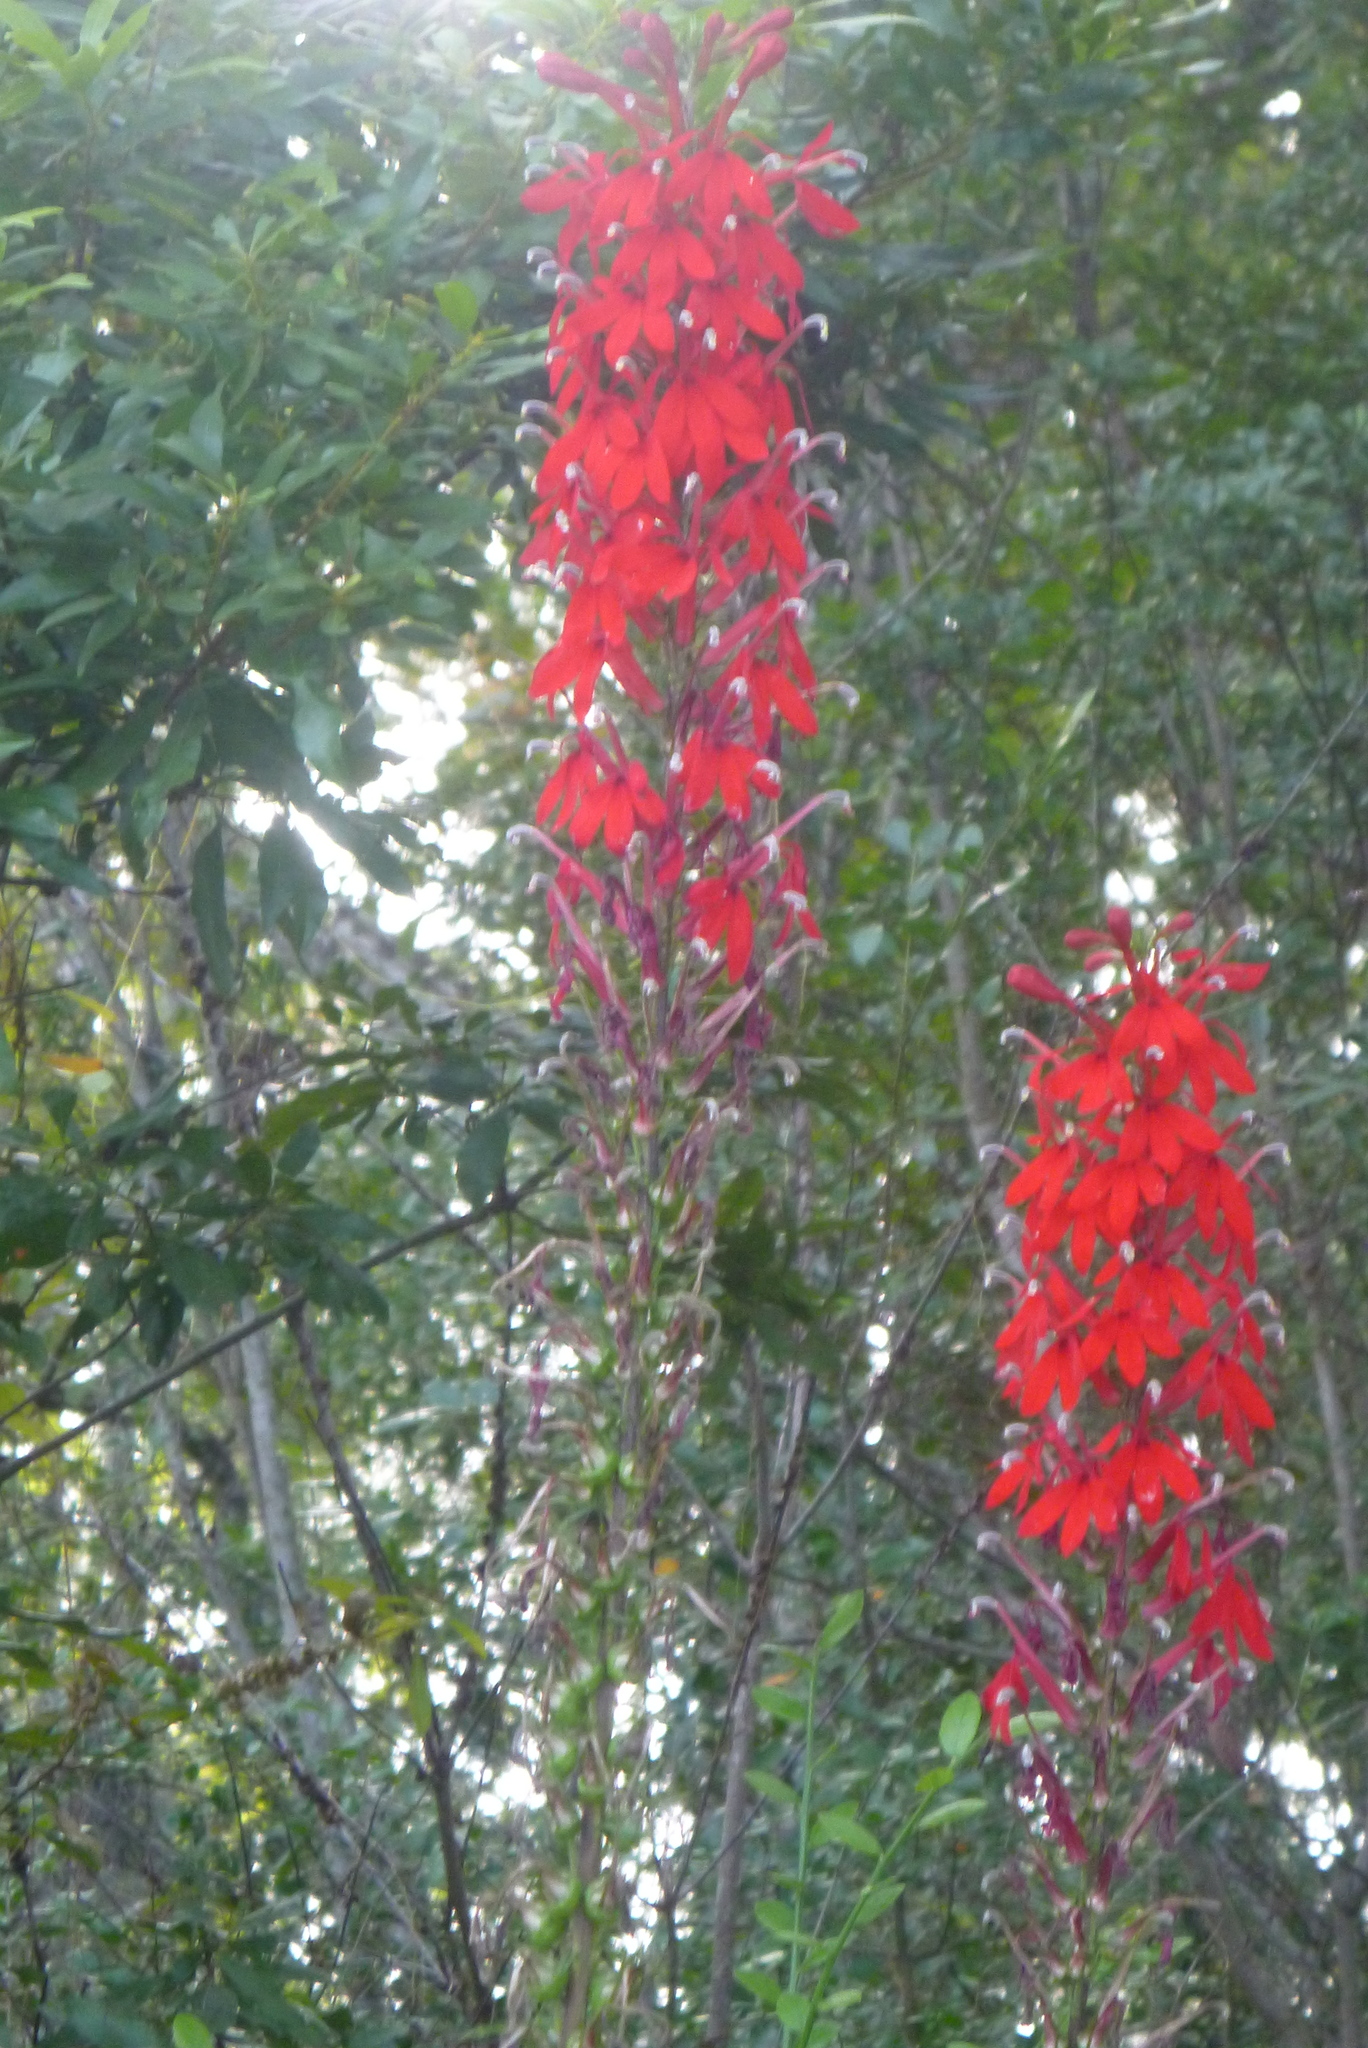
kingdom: Plantae
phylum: Tracheophyta
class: Magnoliopsida
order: Asterales
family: Campanulaceae
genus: Lobelia
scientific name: Lobelia cardinalis
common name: Cardinal flower
